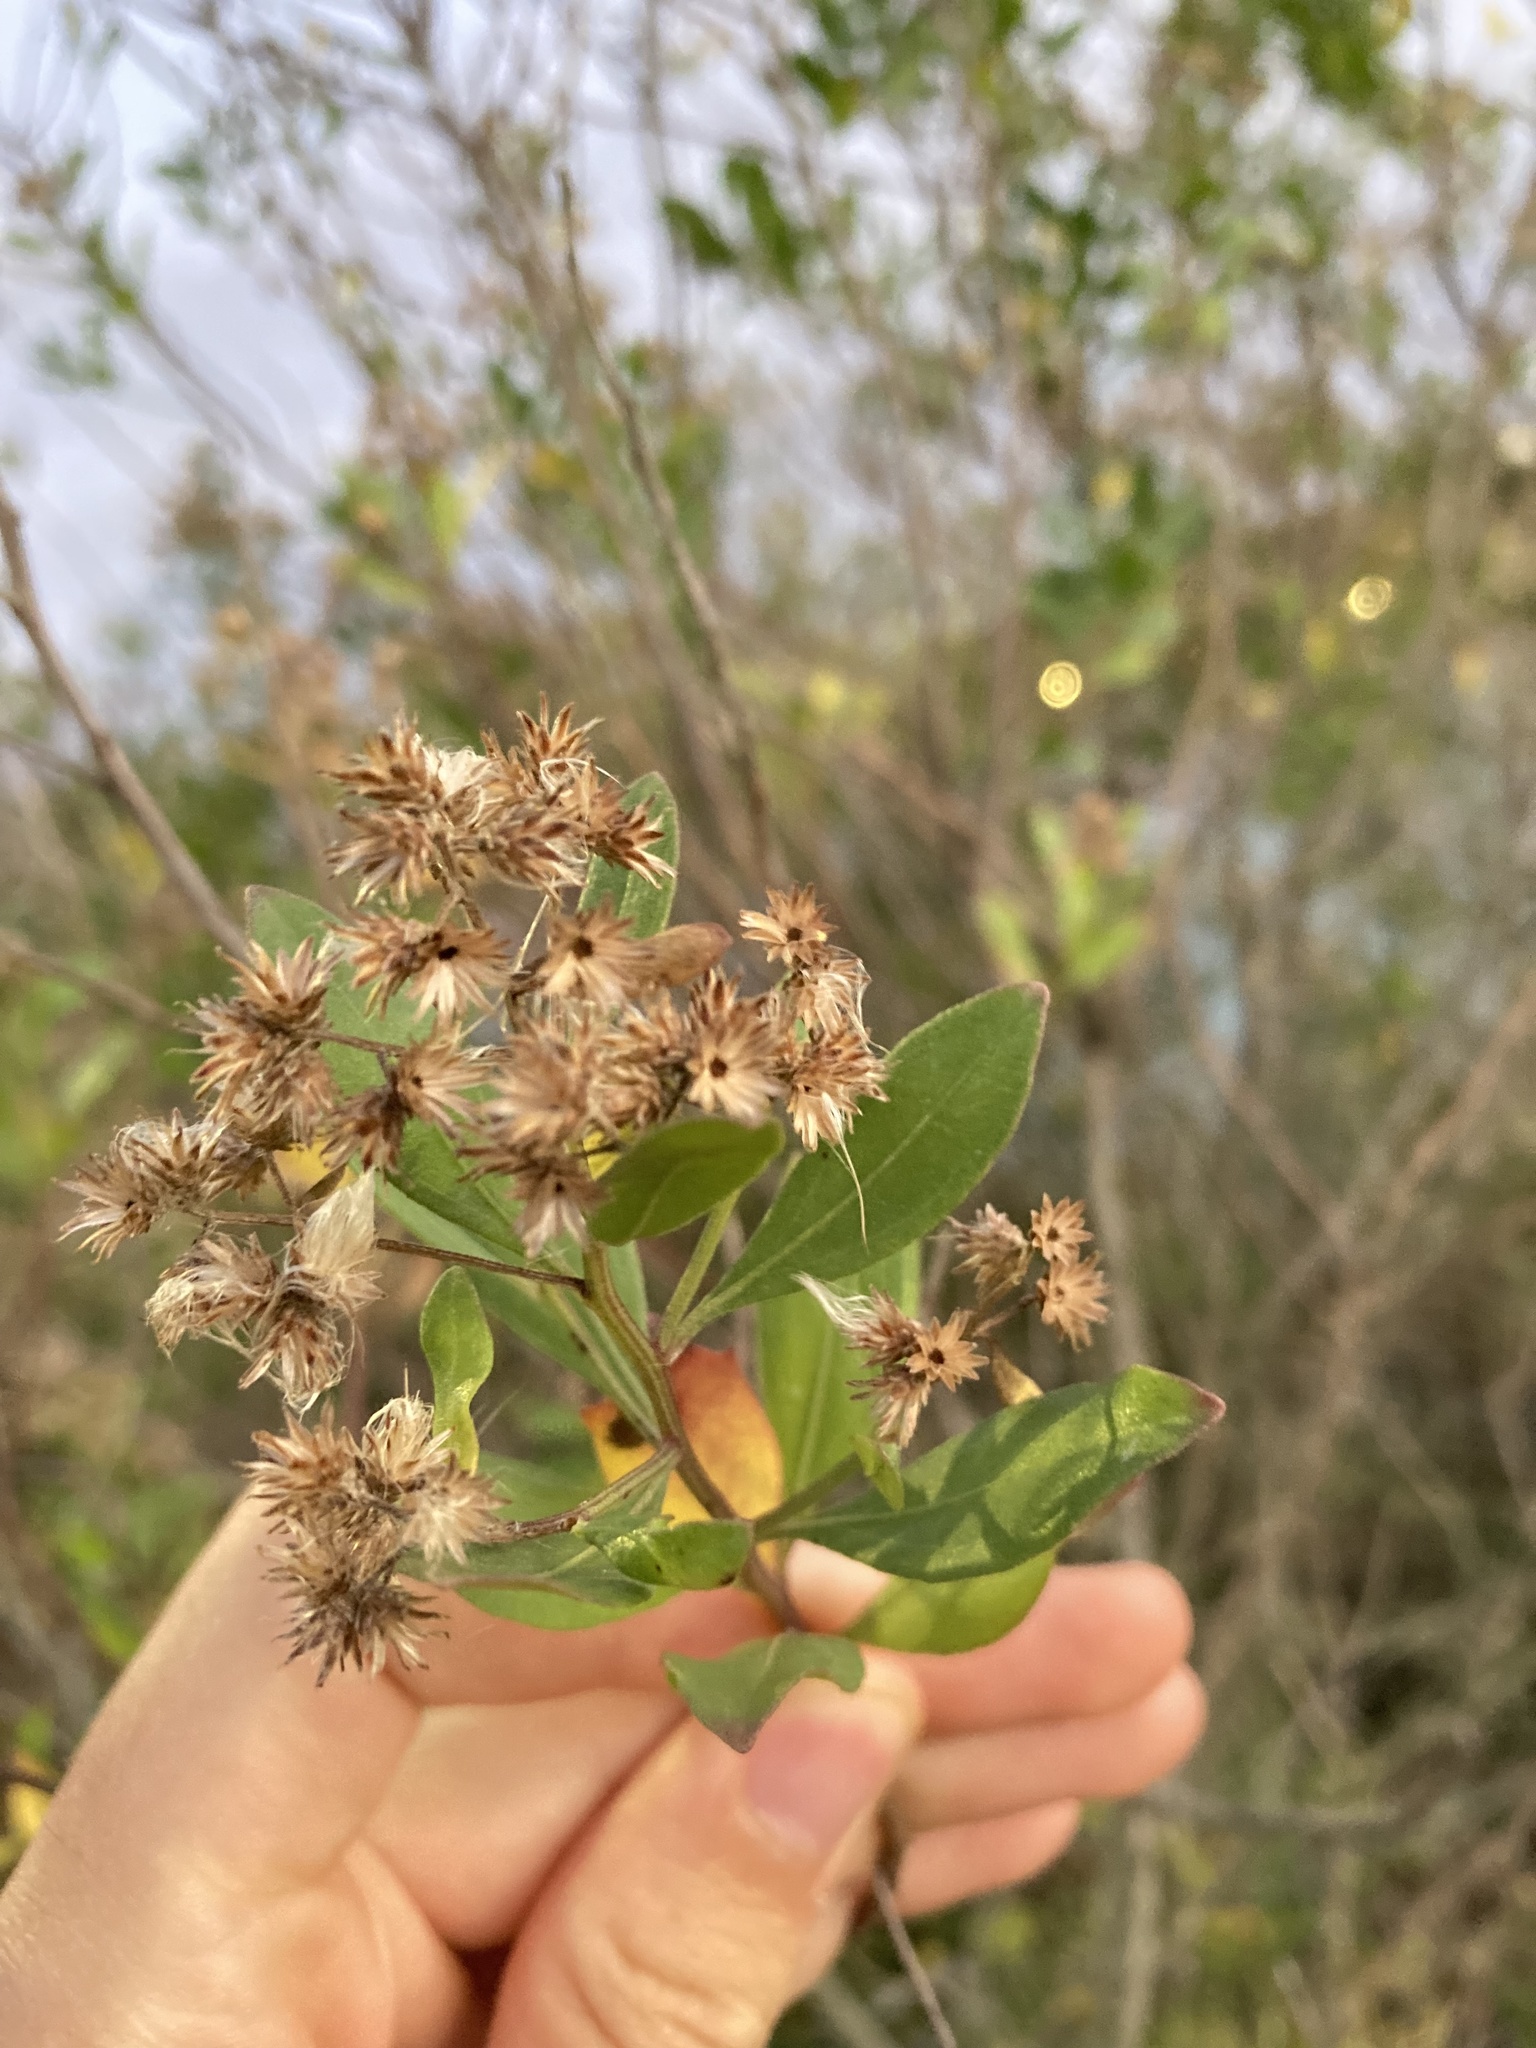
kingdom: Plantae
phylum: Tracheophyta
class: Magnoliopsida
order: Asterales
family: Asteraceae
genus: Baccharis
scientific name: Baccharis halimifolia
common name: Eastern baccharis
